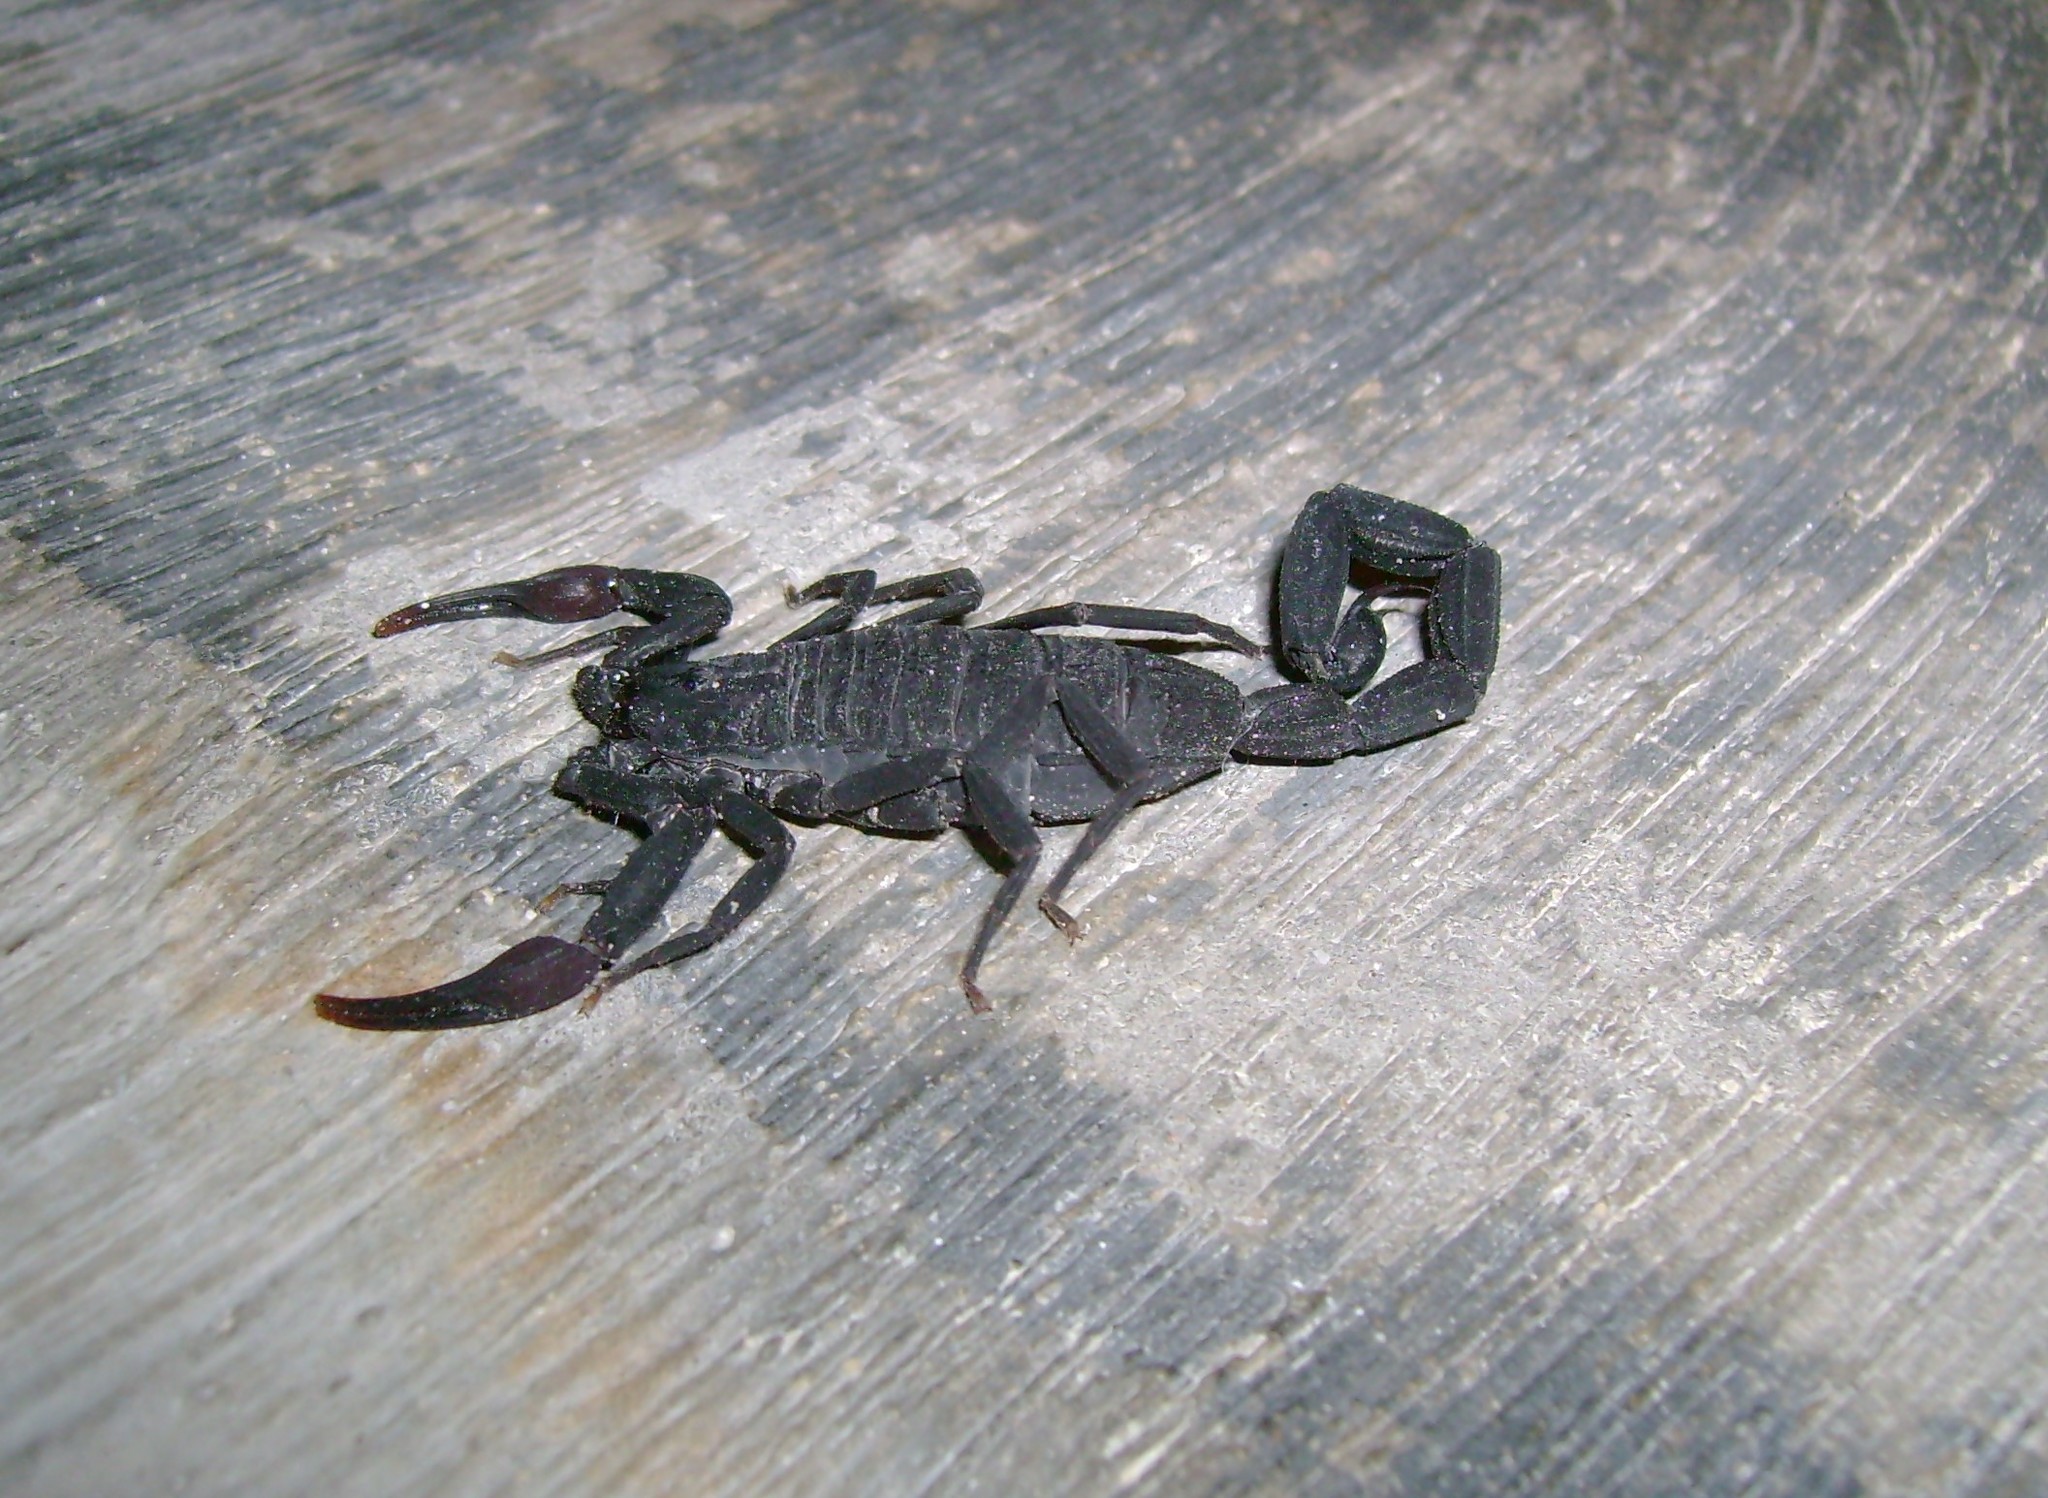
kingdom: Animalia
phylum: Arthropoda
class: Arachnida
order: Scorpiones
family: Buthidae
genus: Centruroides
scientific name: Centruroides gracilis
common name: Scorpions
